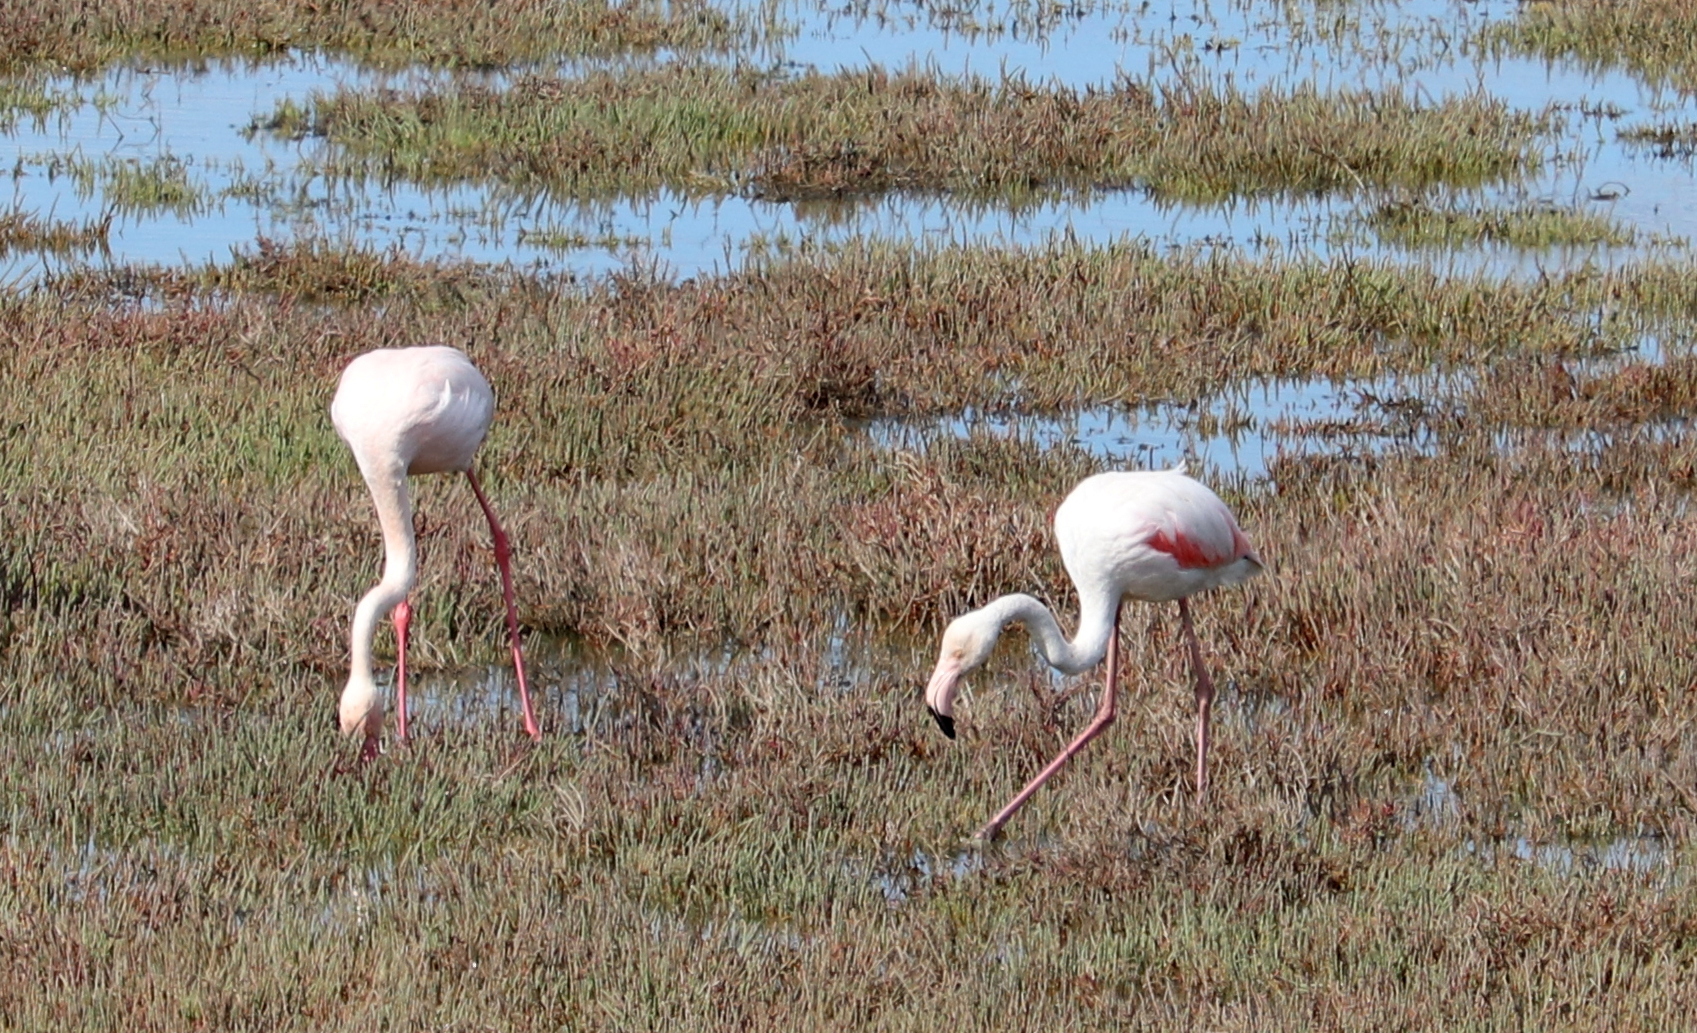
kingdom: Animalia
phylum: Chordata
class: Aves
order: Phoenicopteriformes
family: Phoenicopteridae
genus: Phoenicopterus
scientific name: Phoenicopterus roseus
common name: Greater flamingo
